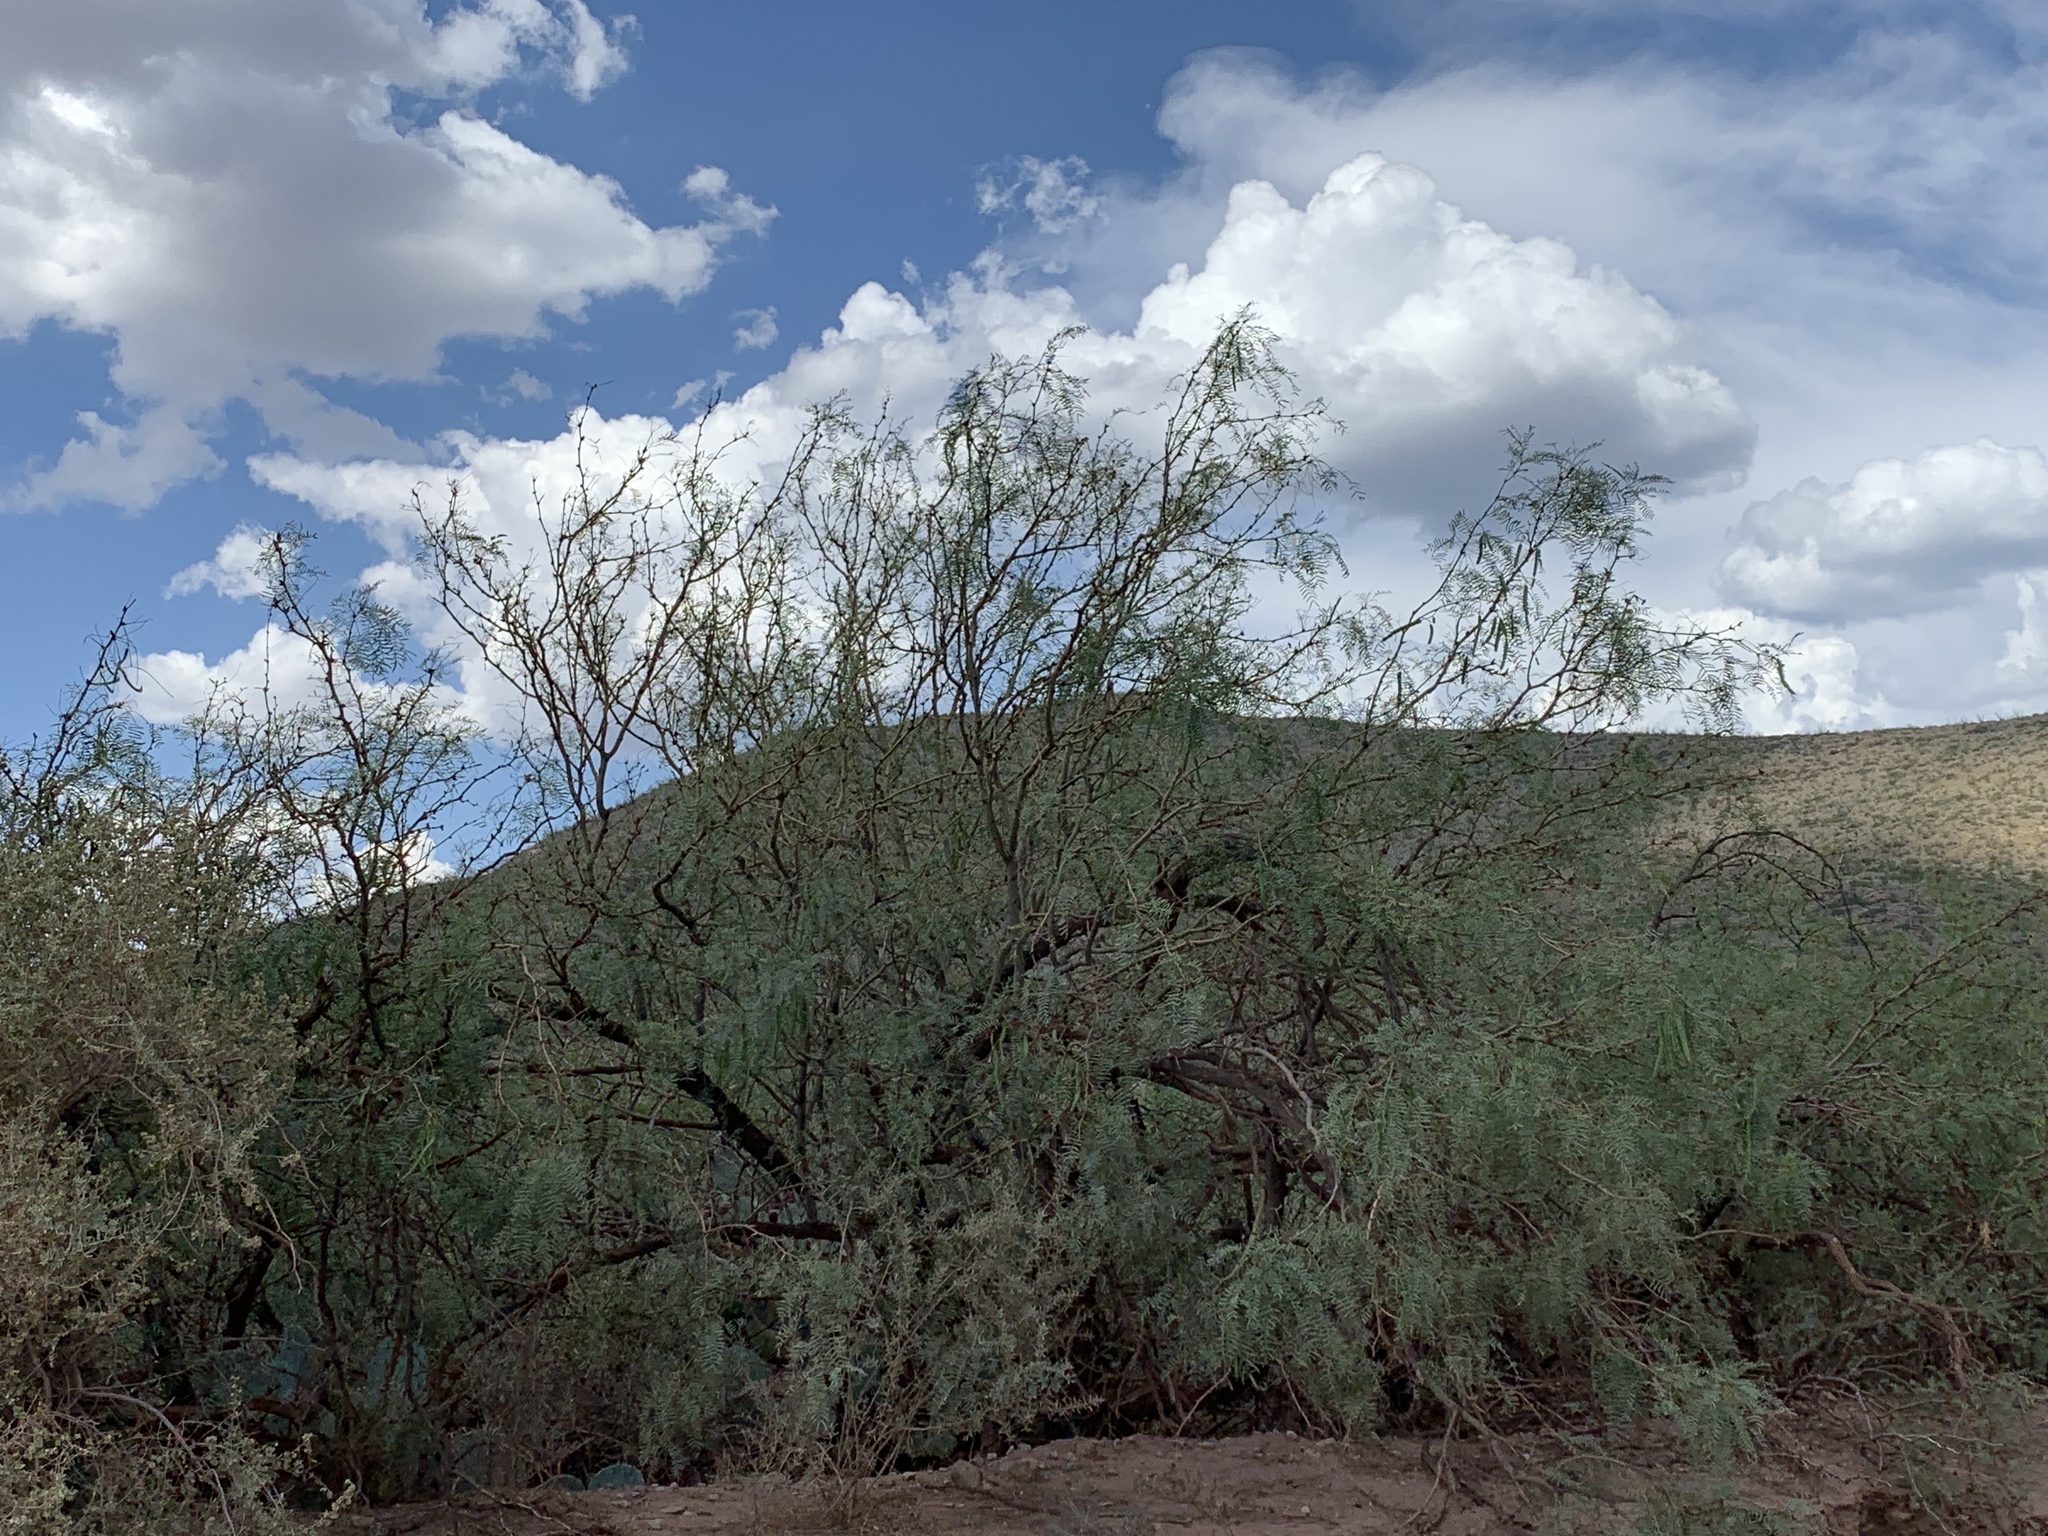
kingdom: Plantae
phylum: Tracheophyta
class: Magnoliopsida
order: Fabales
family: Fabaceae
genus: Prosopis
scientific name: Prosopis glandulosa
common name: Honey mesquite
